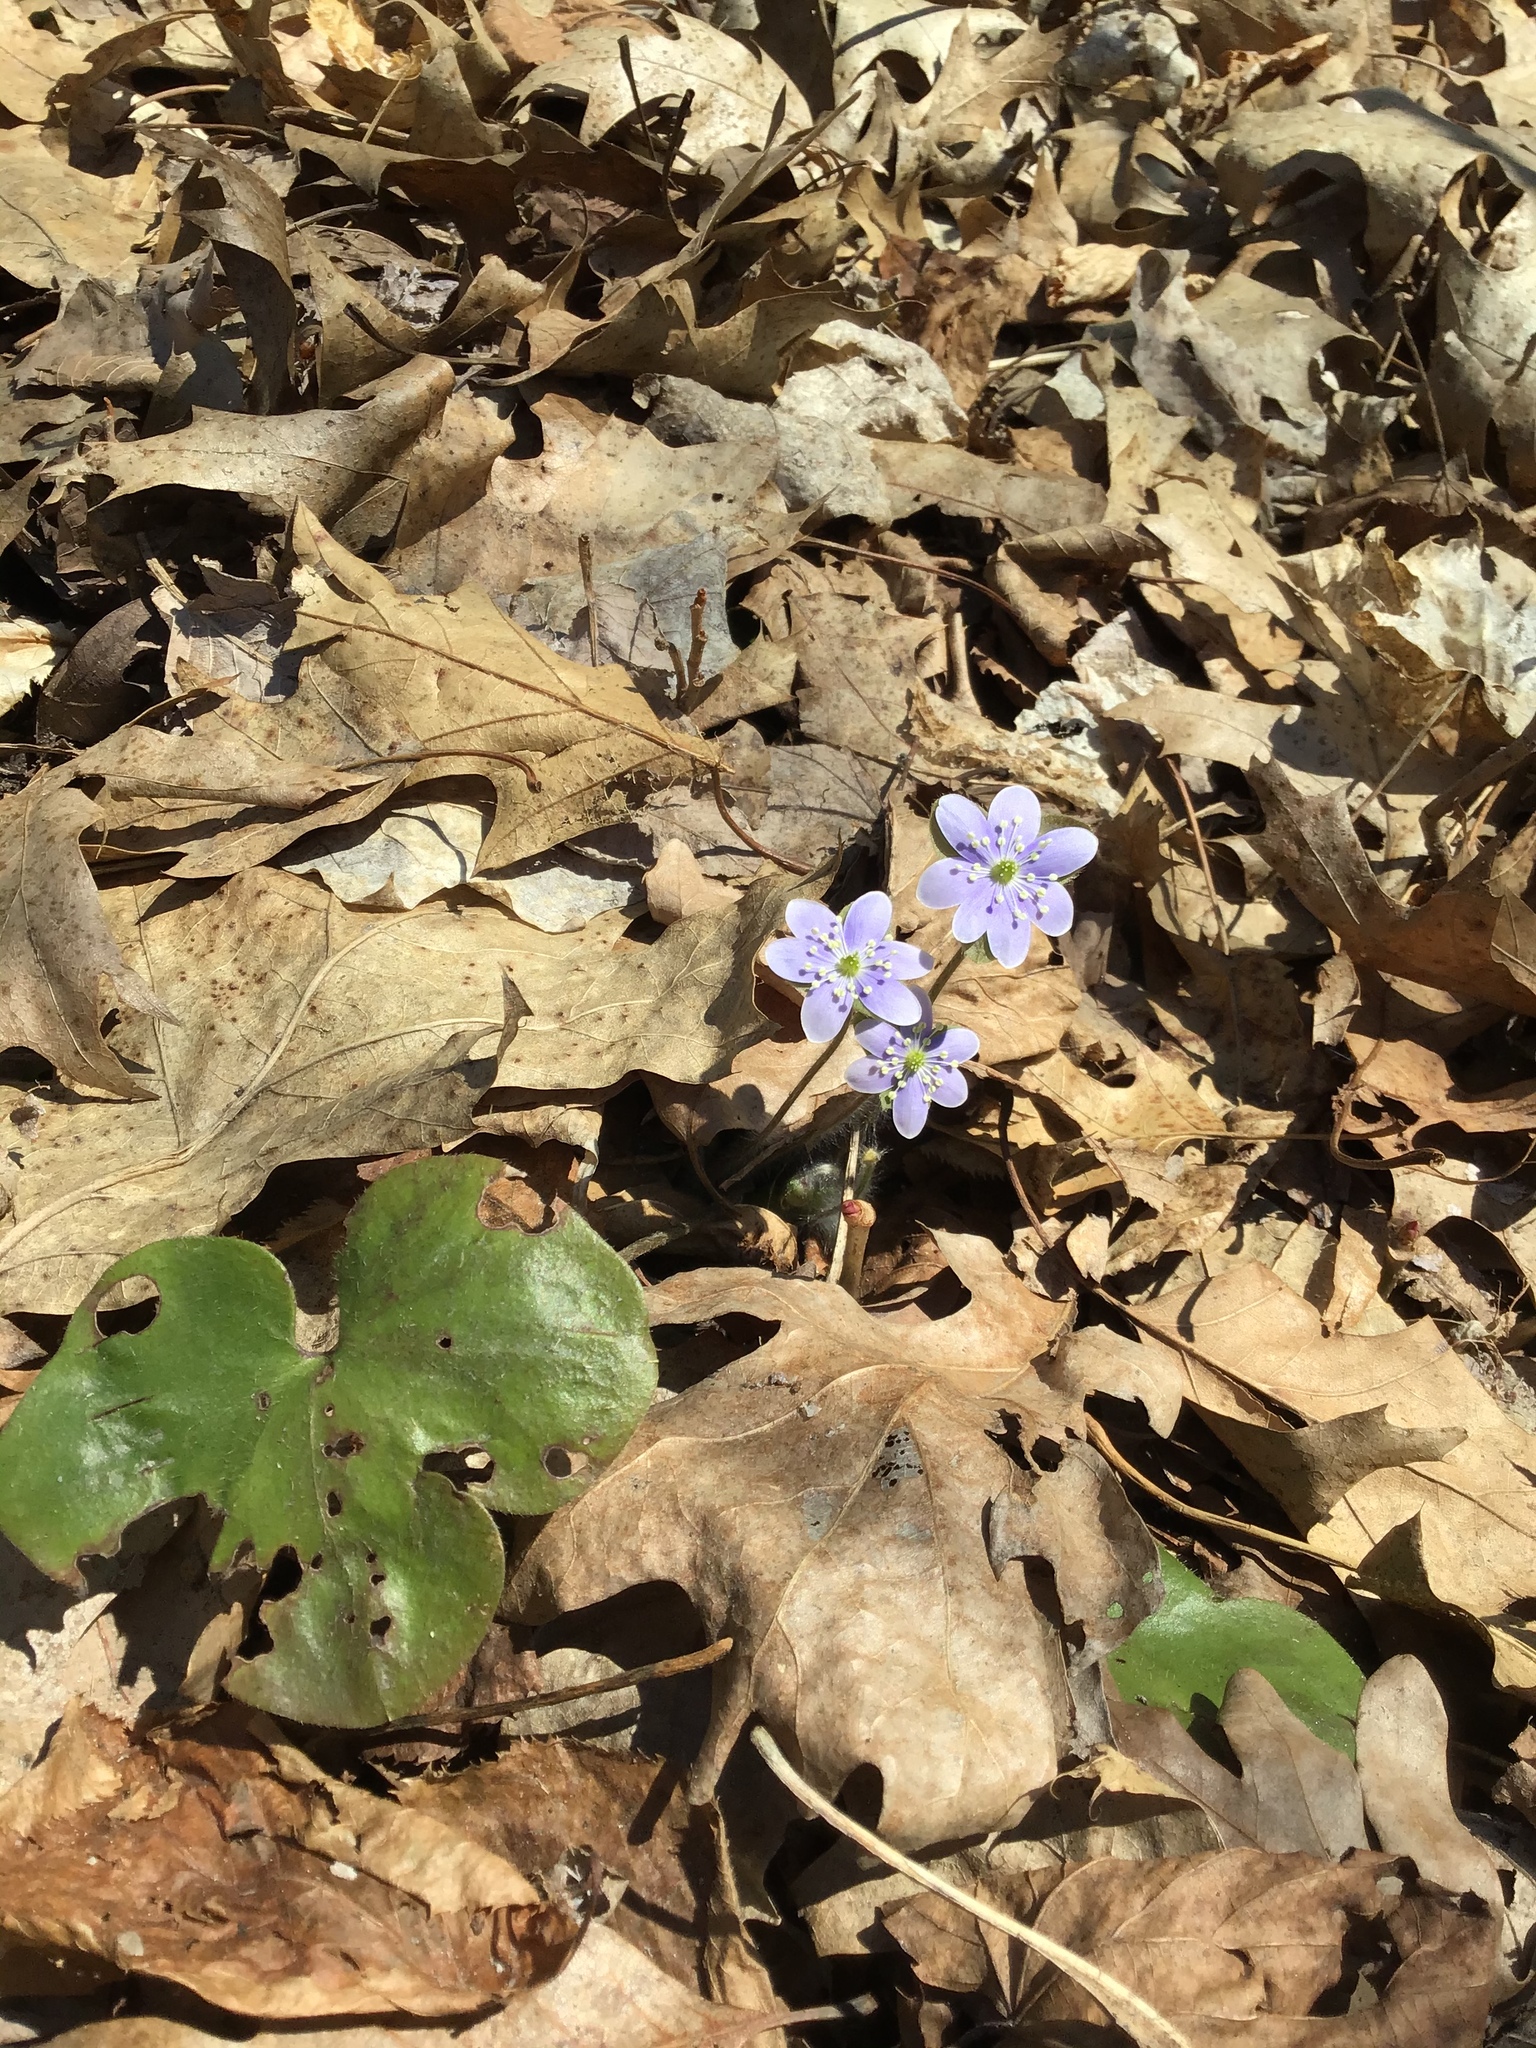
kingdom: Plantae
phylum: Tracheophyta
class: Magnoliopsida
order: Ranunculales
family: Ranunculaceae
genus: Hepatica
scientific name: Hepatica americana
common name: American hepatica
